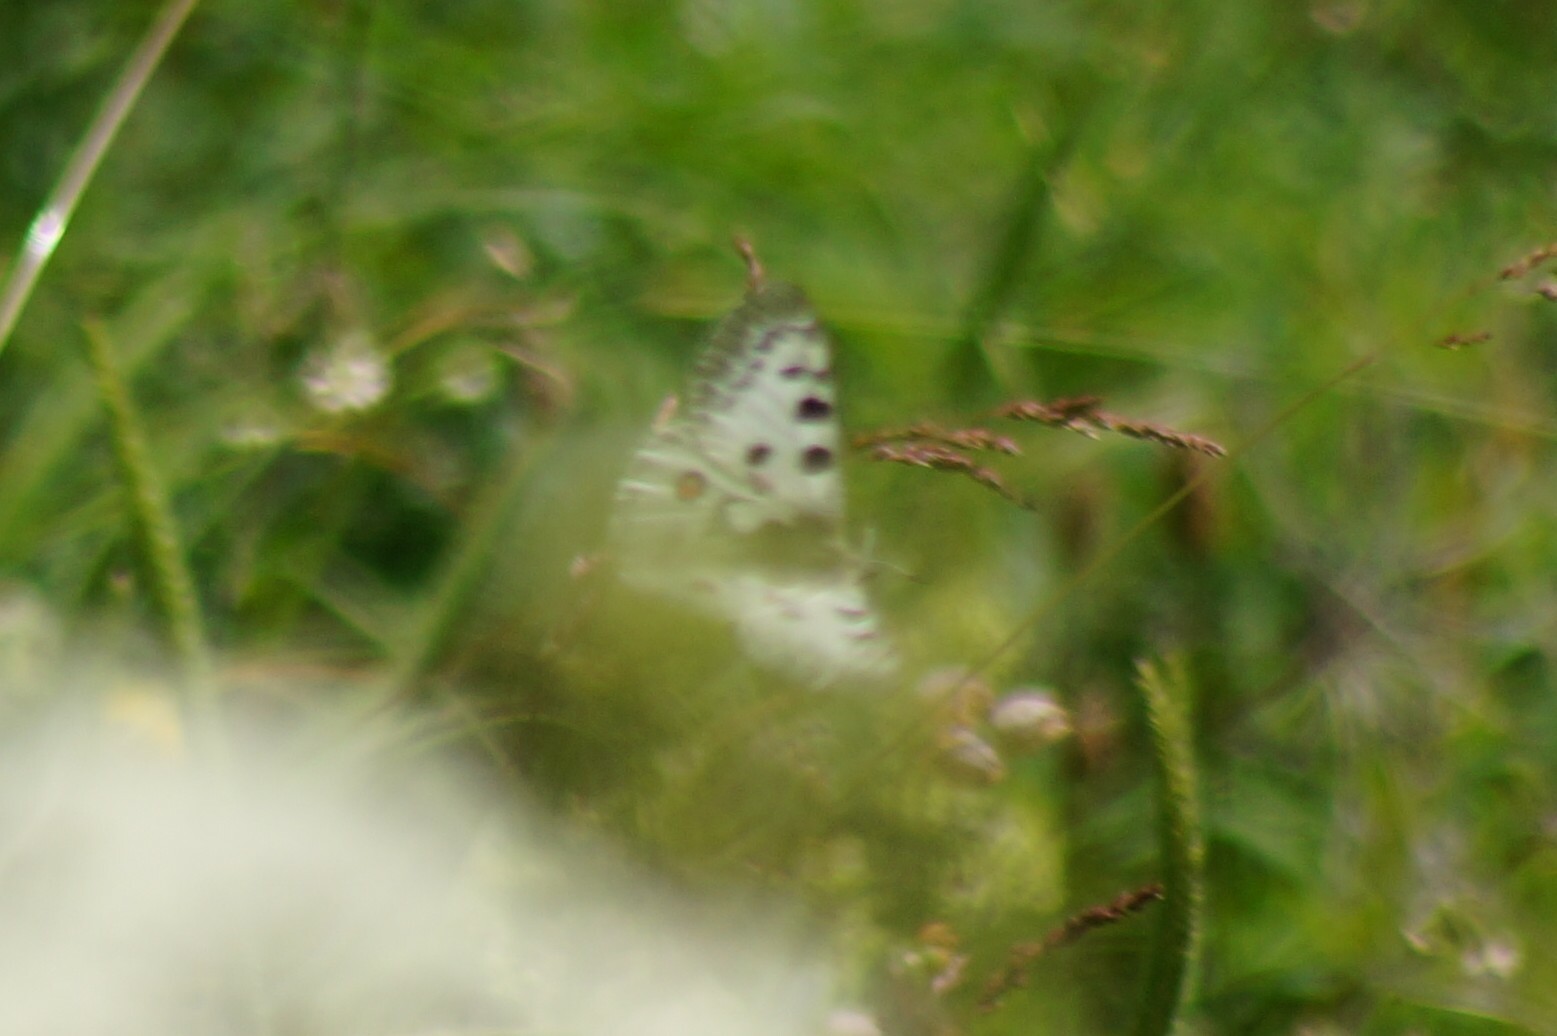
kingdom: Animalia
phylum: Arthropoda
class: Insecta
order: Lepidoptera
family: Papilionidae
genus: Parnassius
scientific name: Parnassius apollo
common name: Apollo
